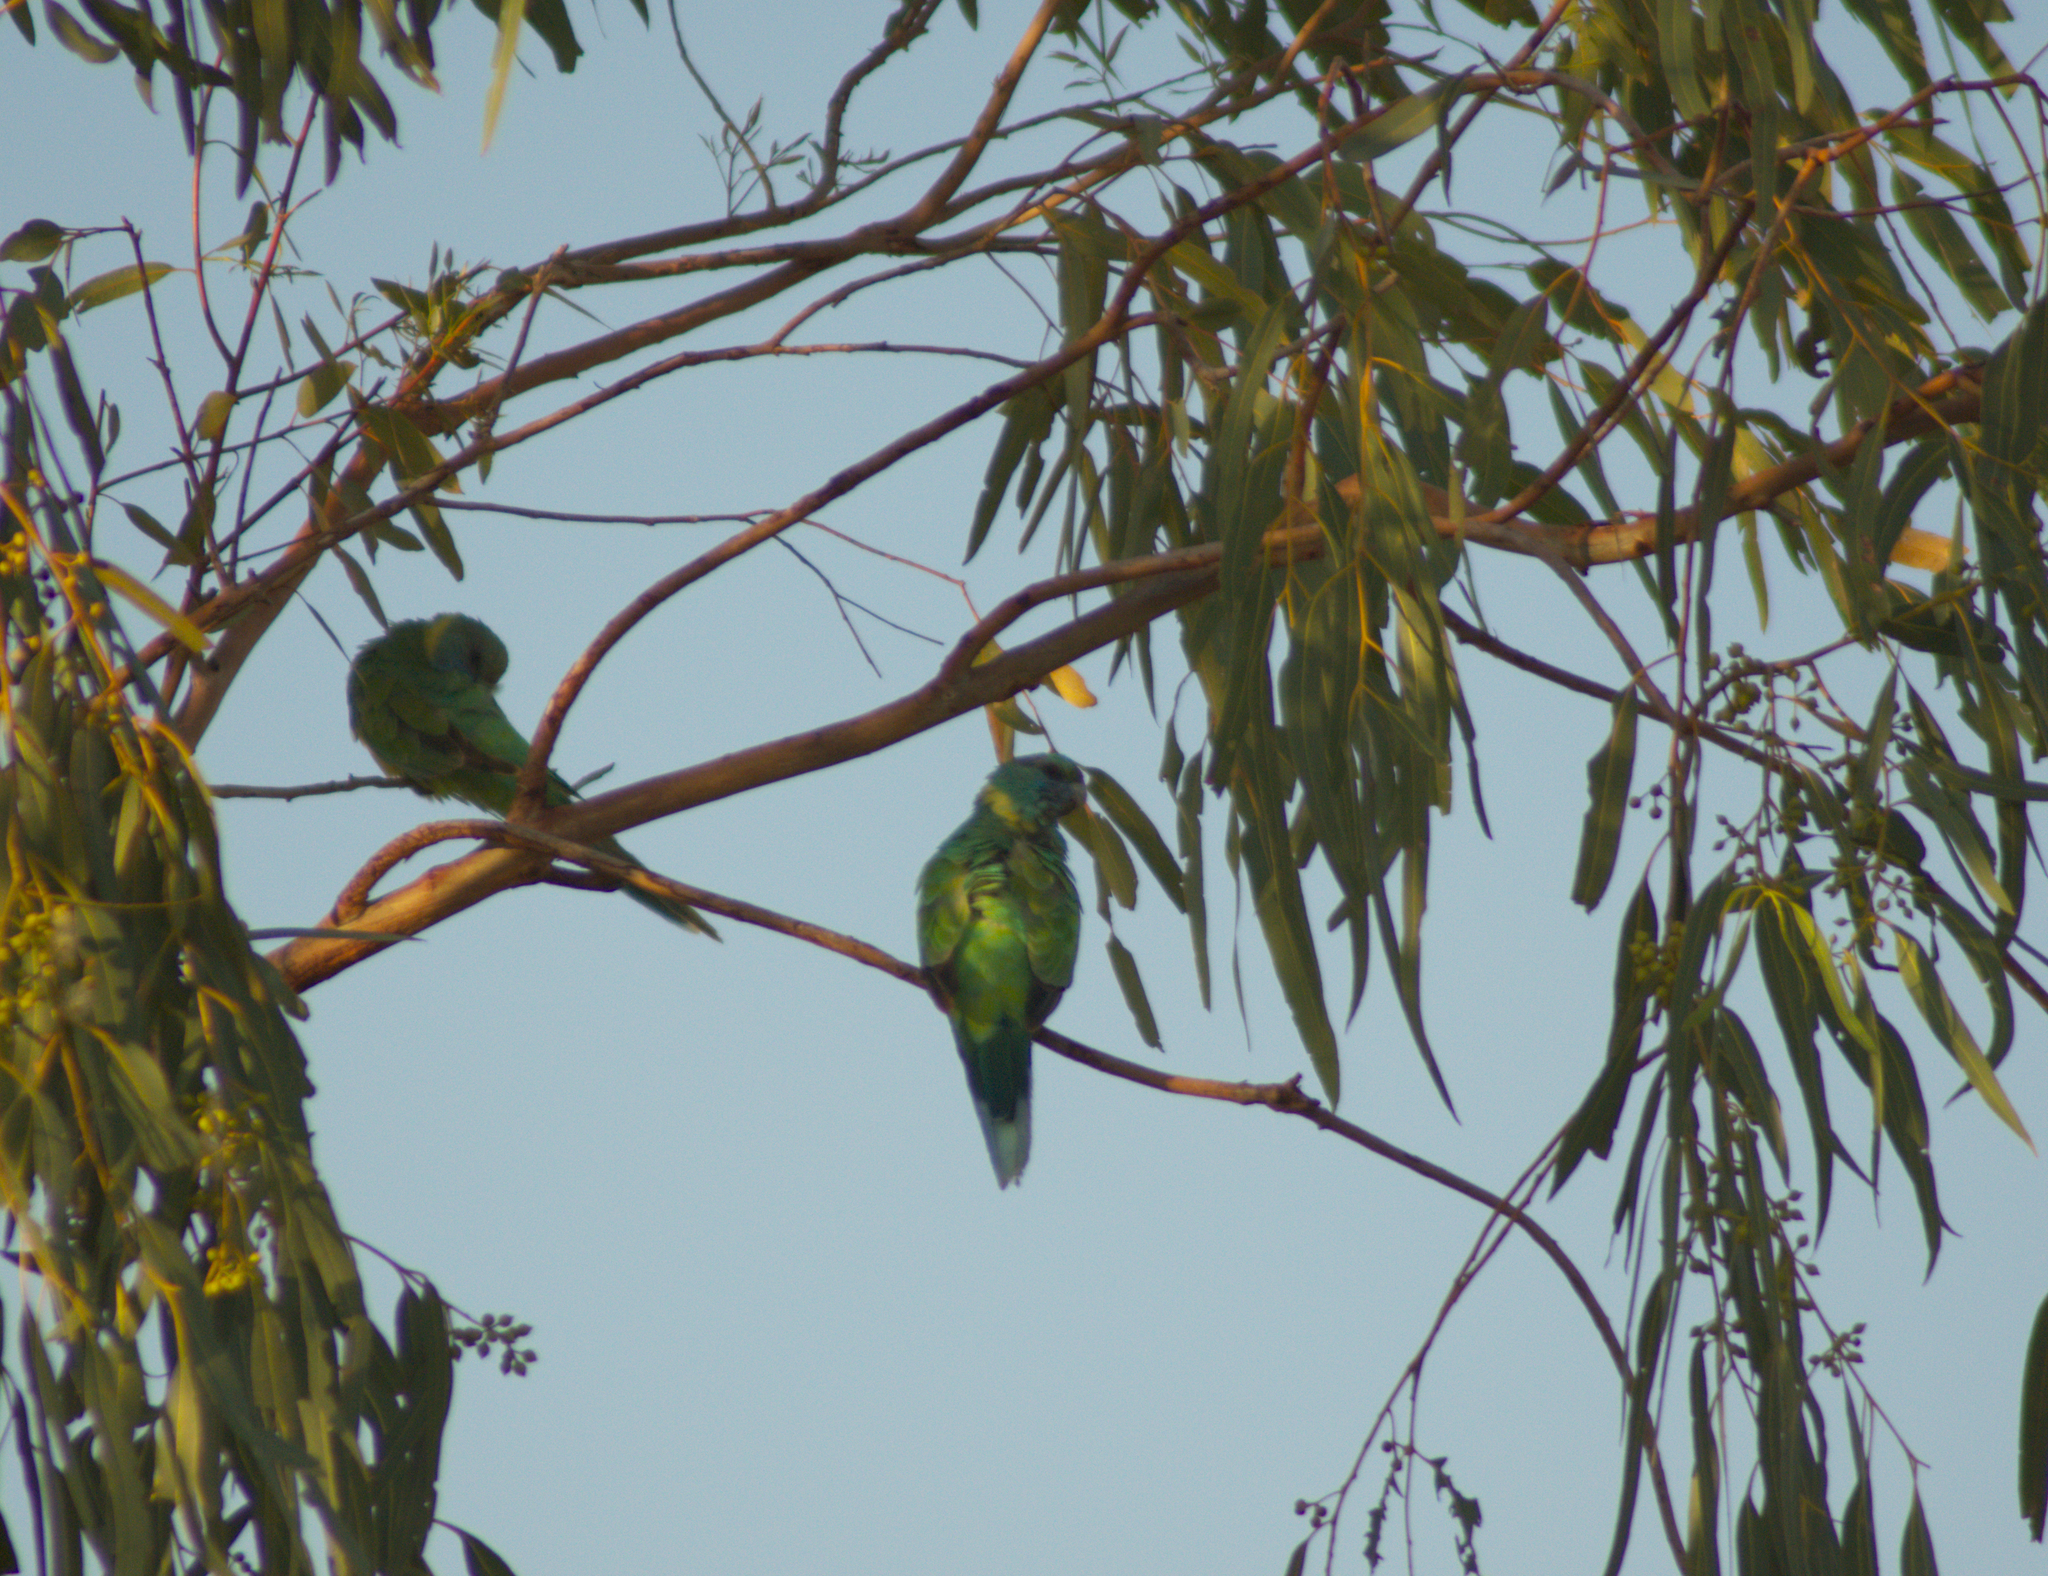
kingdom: Animalia
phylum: Chordata
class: Aves
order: Psittaciformes
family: Psittacidae
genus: Barnardius
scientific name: Barnardius zonarius
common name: Australian ringneck
